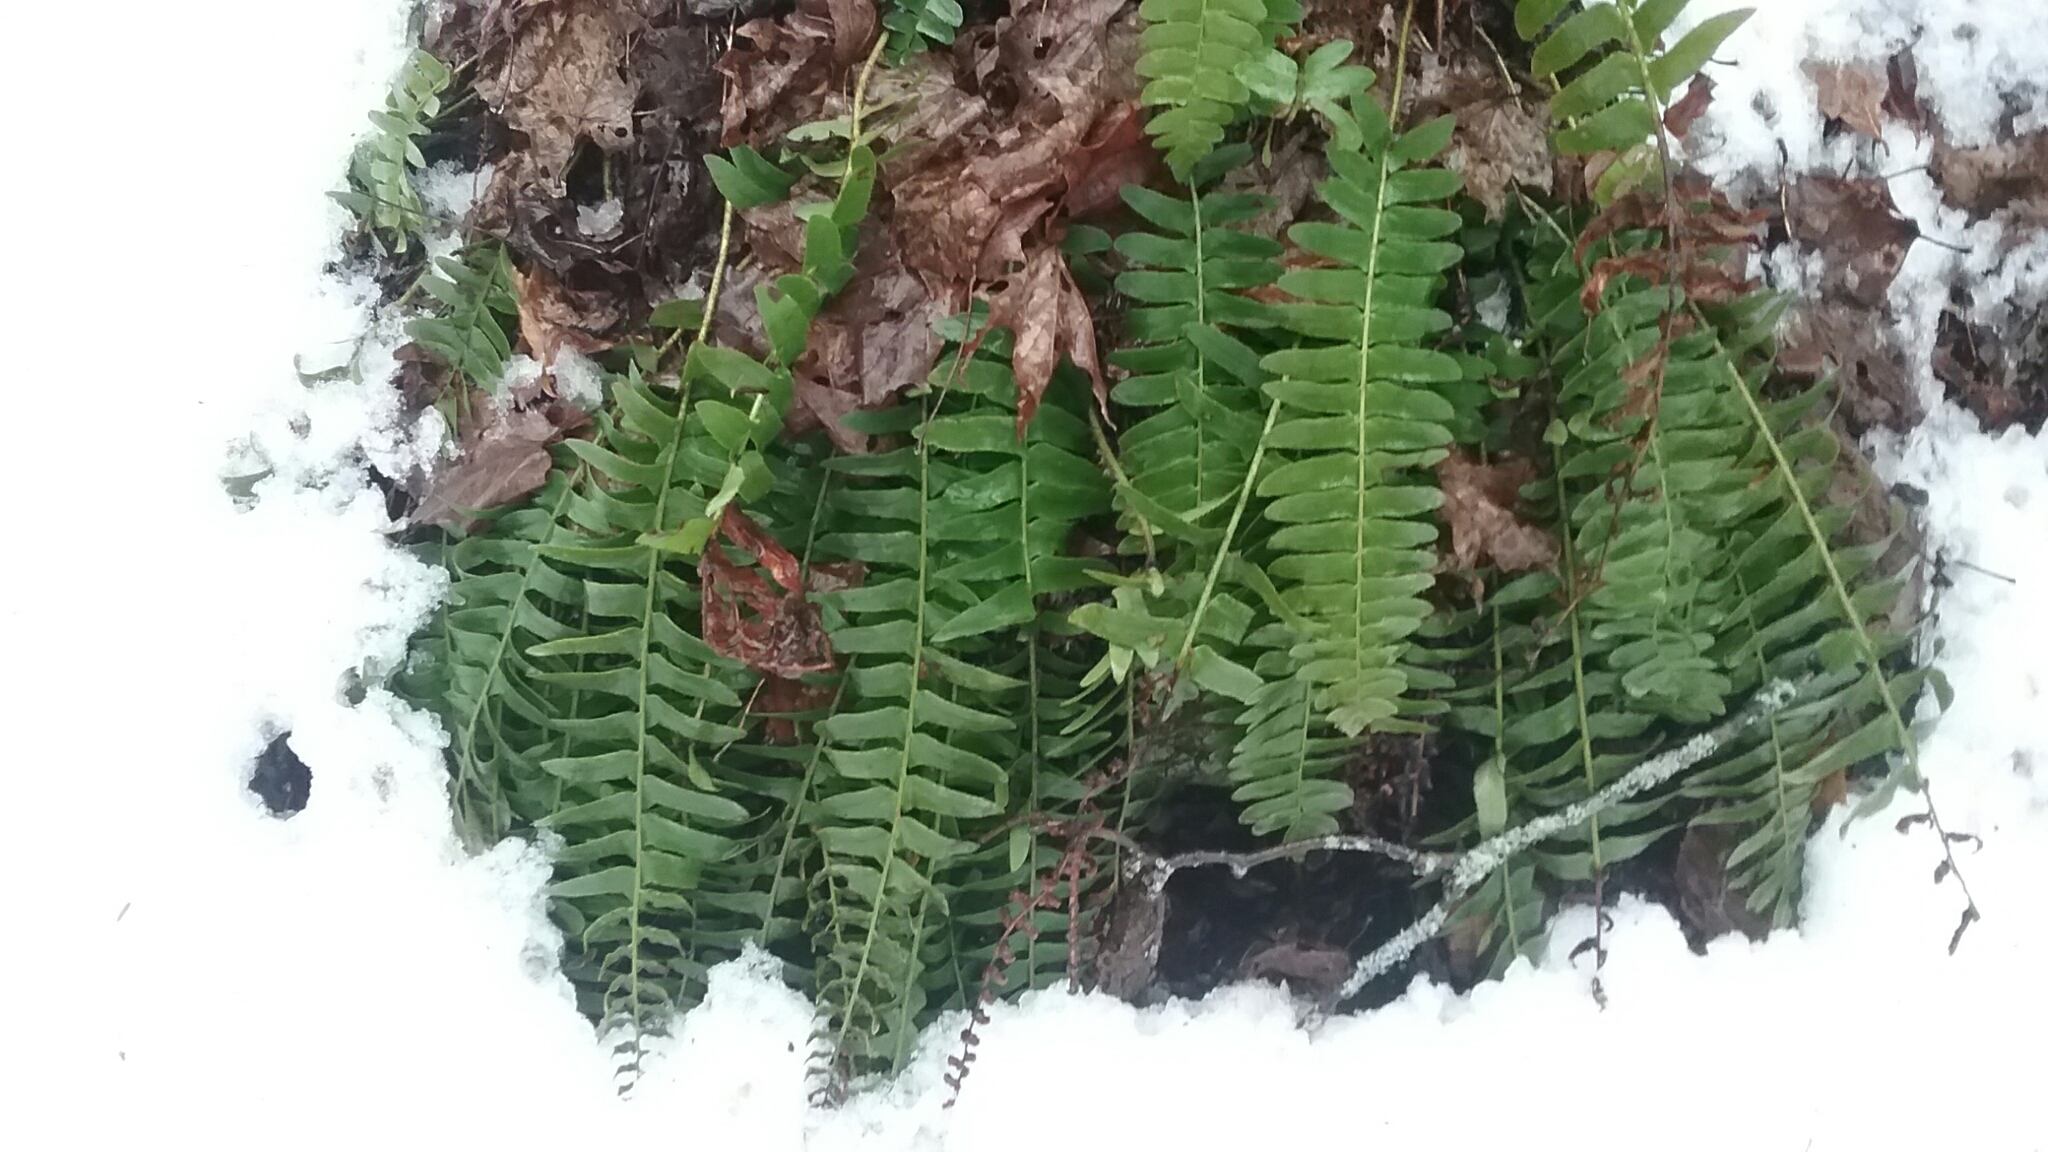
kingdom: Plantae
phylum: Tracheophyta
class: Polypodiopsida
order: Polypodiales
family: Dryopteridaceae
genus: Polystichum
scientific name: Polystichum acrostichoides
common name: Christmas fern
